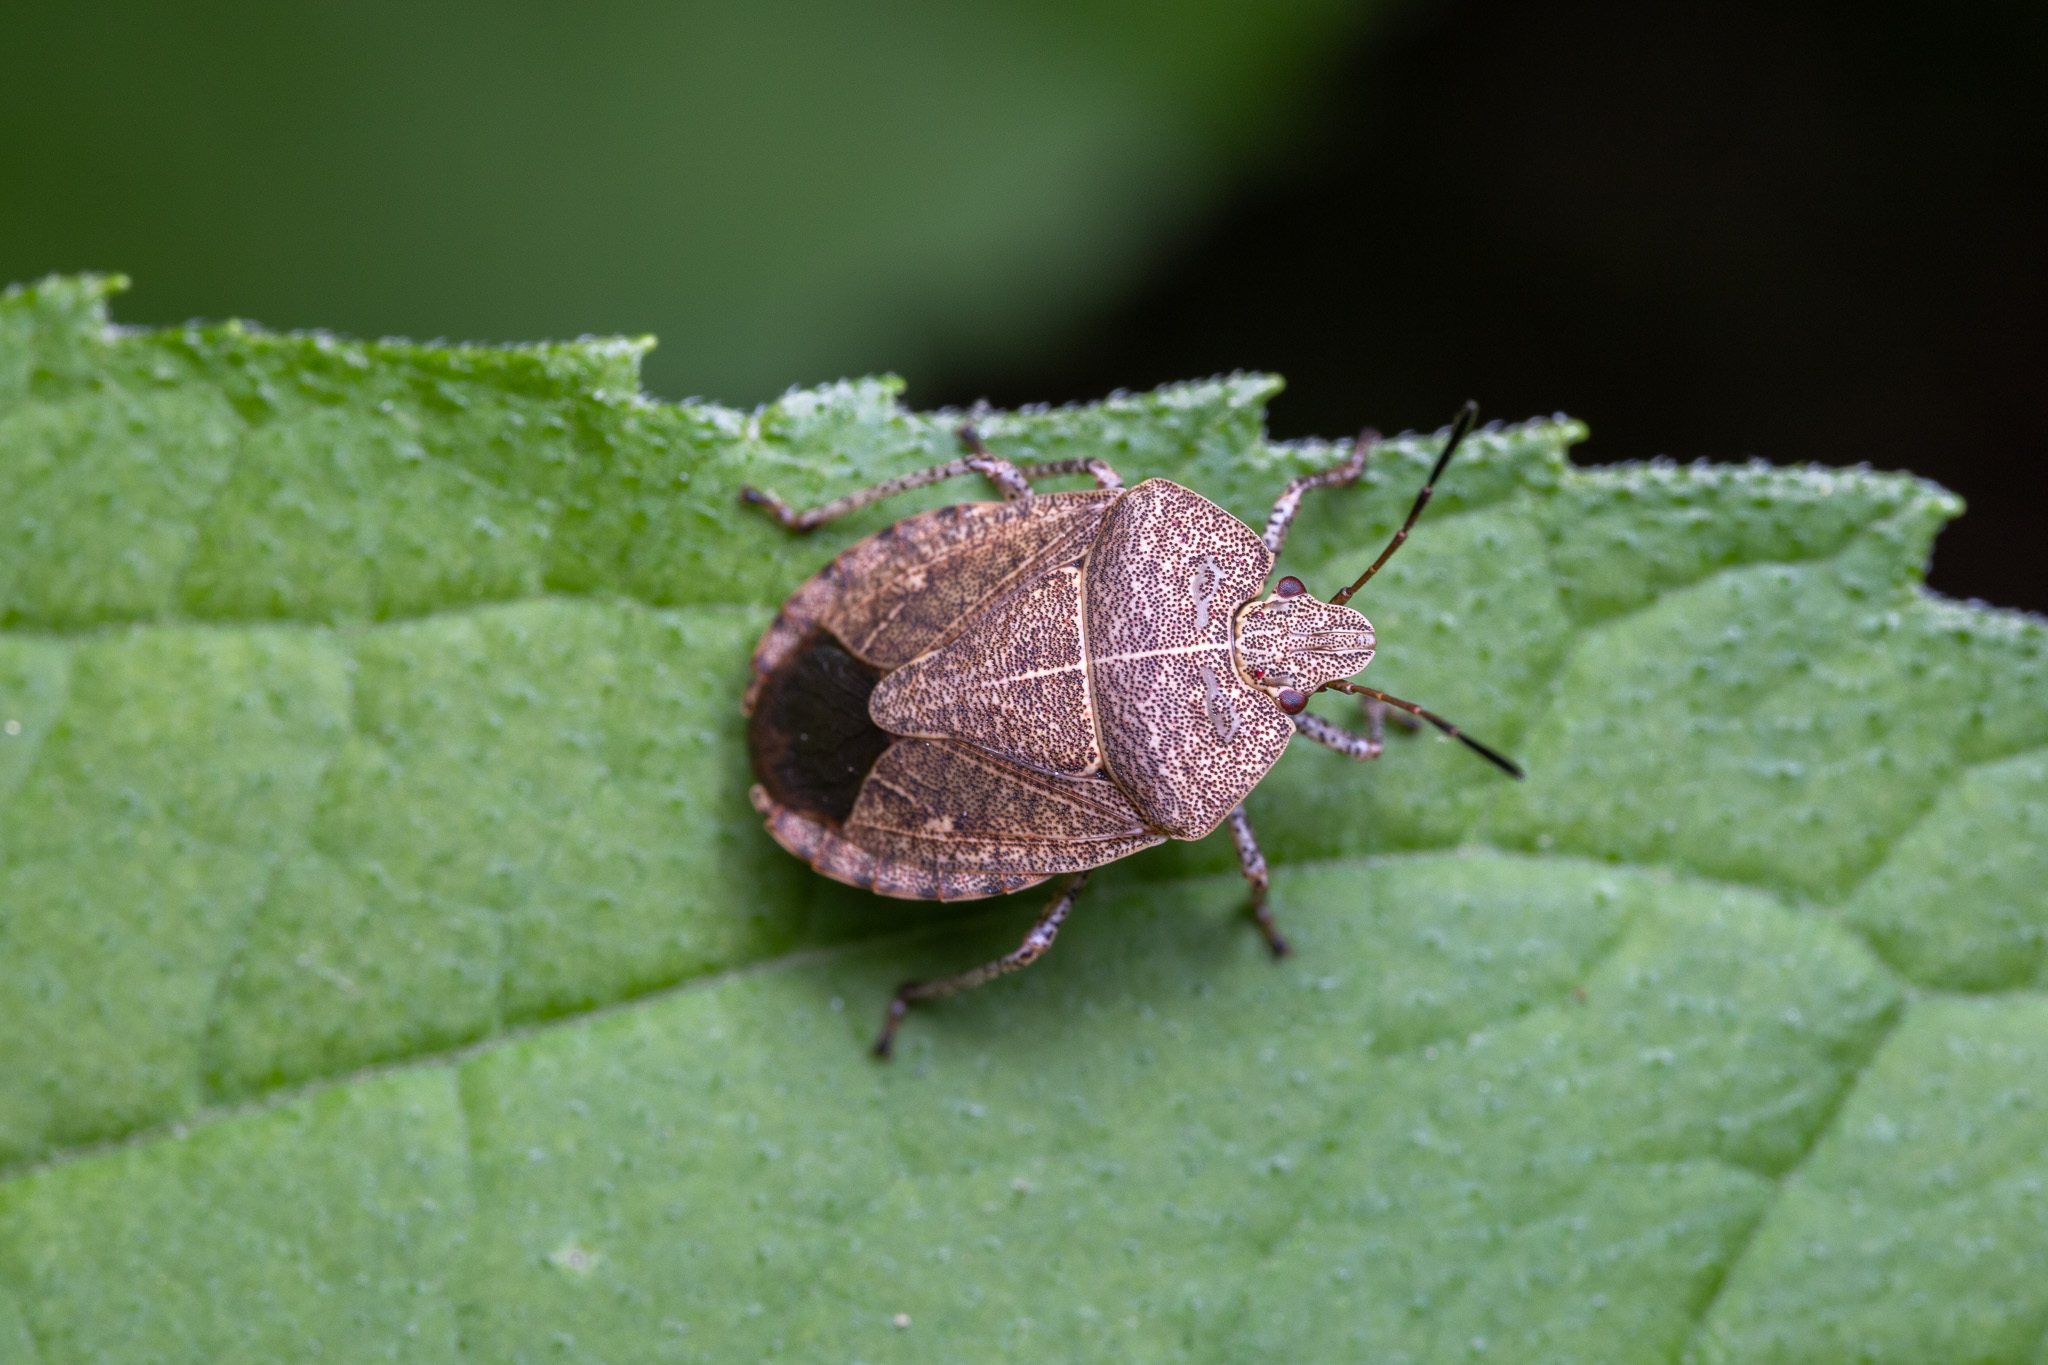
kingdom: Animalia
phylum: Arthropoda
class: Insecta
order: Hemiptera
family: Pentatomidae
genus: Menecles
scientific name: Menecles insertus
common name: Elf shoe stink bug
